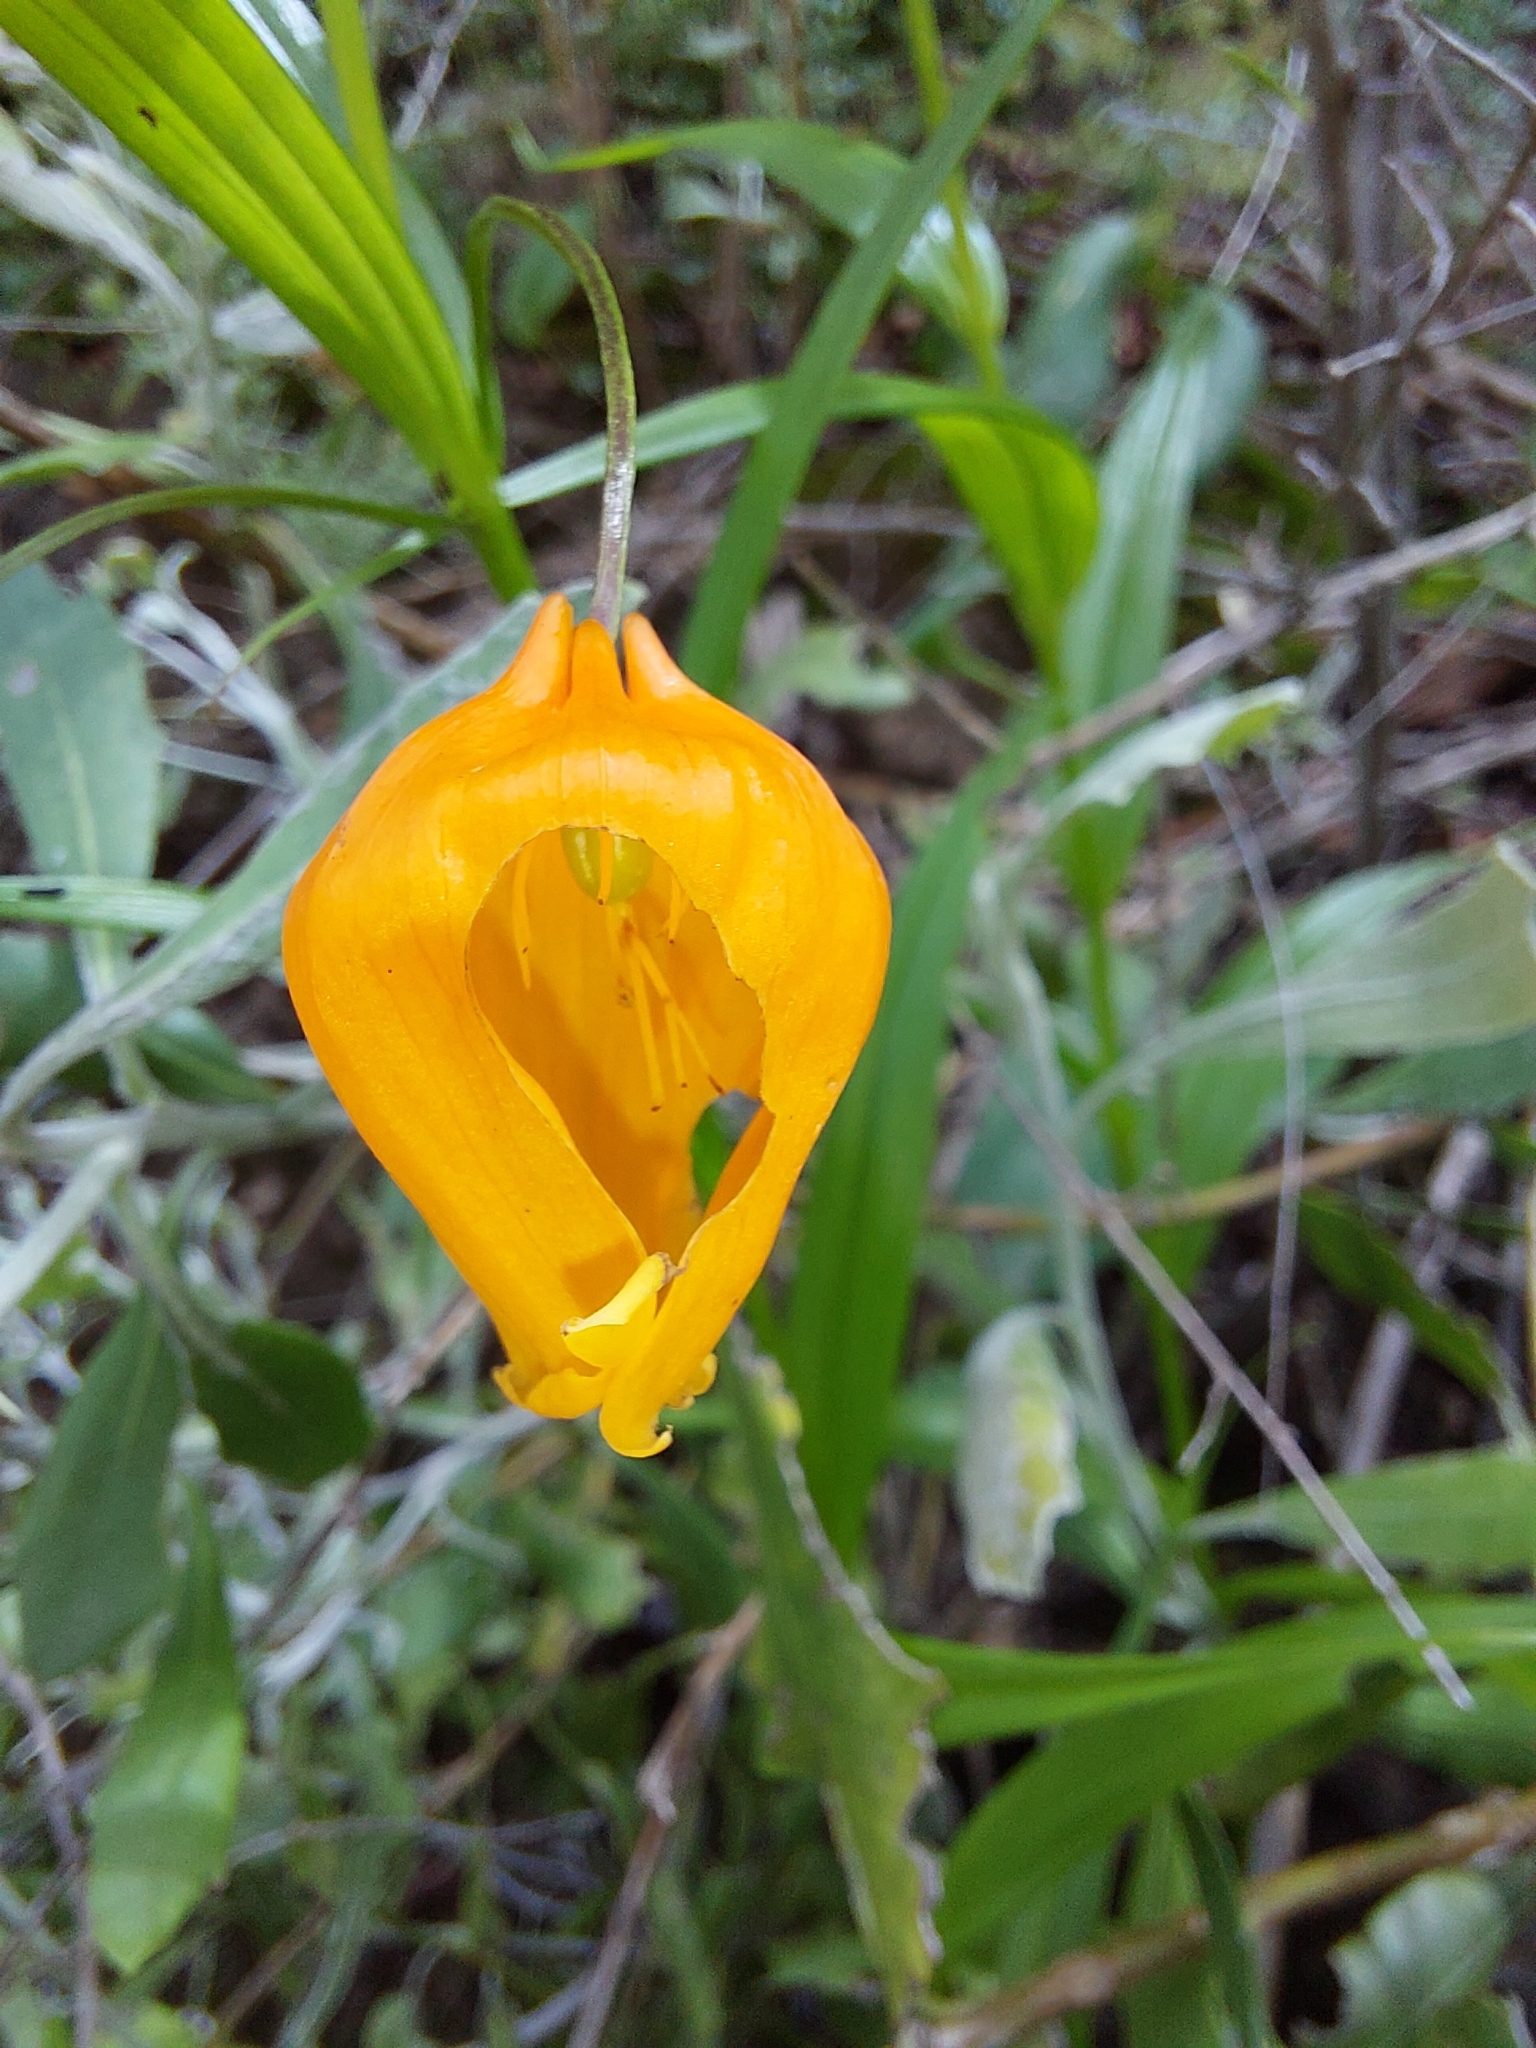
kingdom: Plantae
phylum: Tracheophyta
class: Liliopsida
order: Liliales
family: Colchicaceae
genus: Sandersonia
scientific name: Sandersonia aurantiaca
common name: Chinese-lantern-lily
